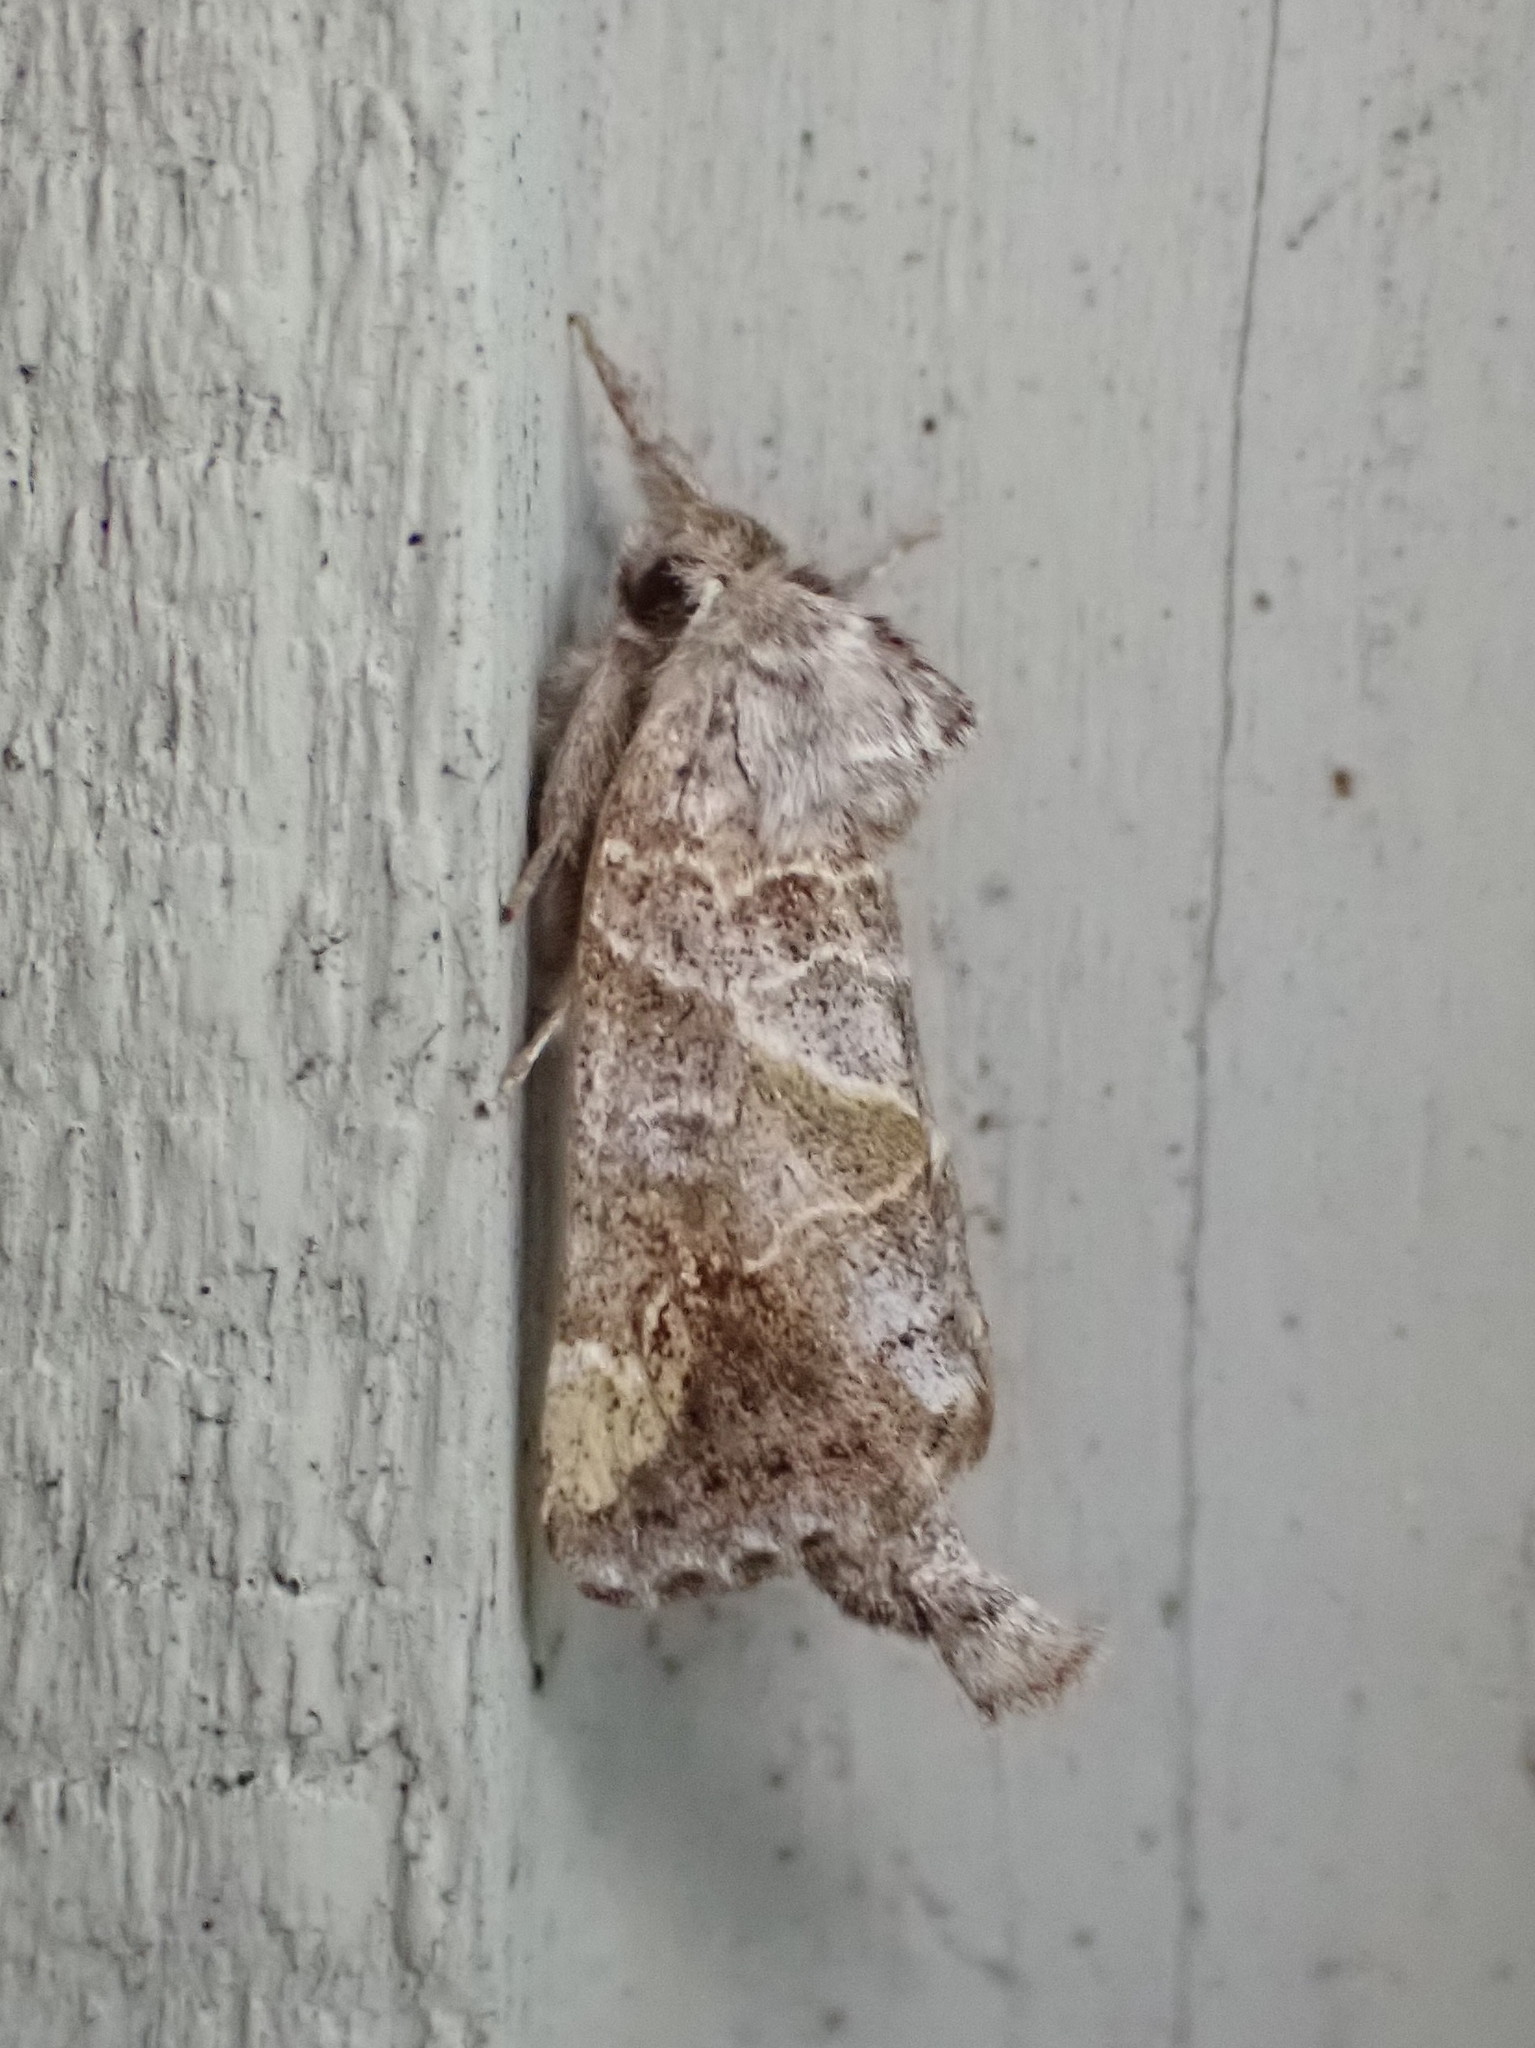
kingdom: Animalia
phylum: Arthropoda
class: Insecta
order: Lepidoptera
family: Notodontidae
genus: Clostera
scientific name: Clostera strigosa
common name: Striped chocolate-tip moth
